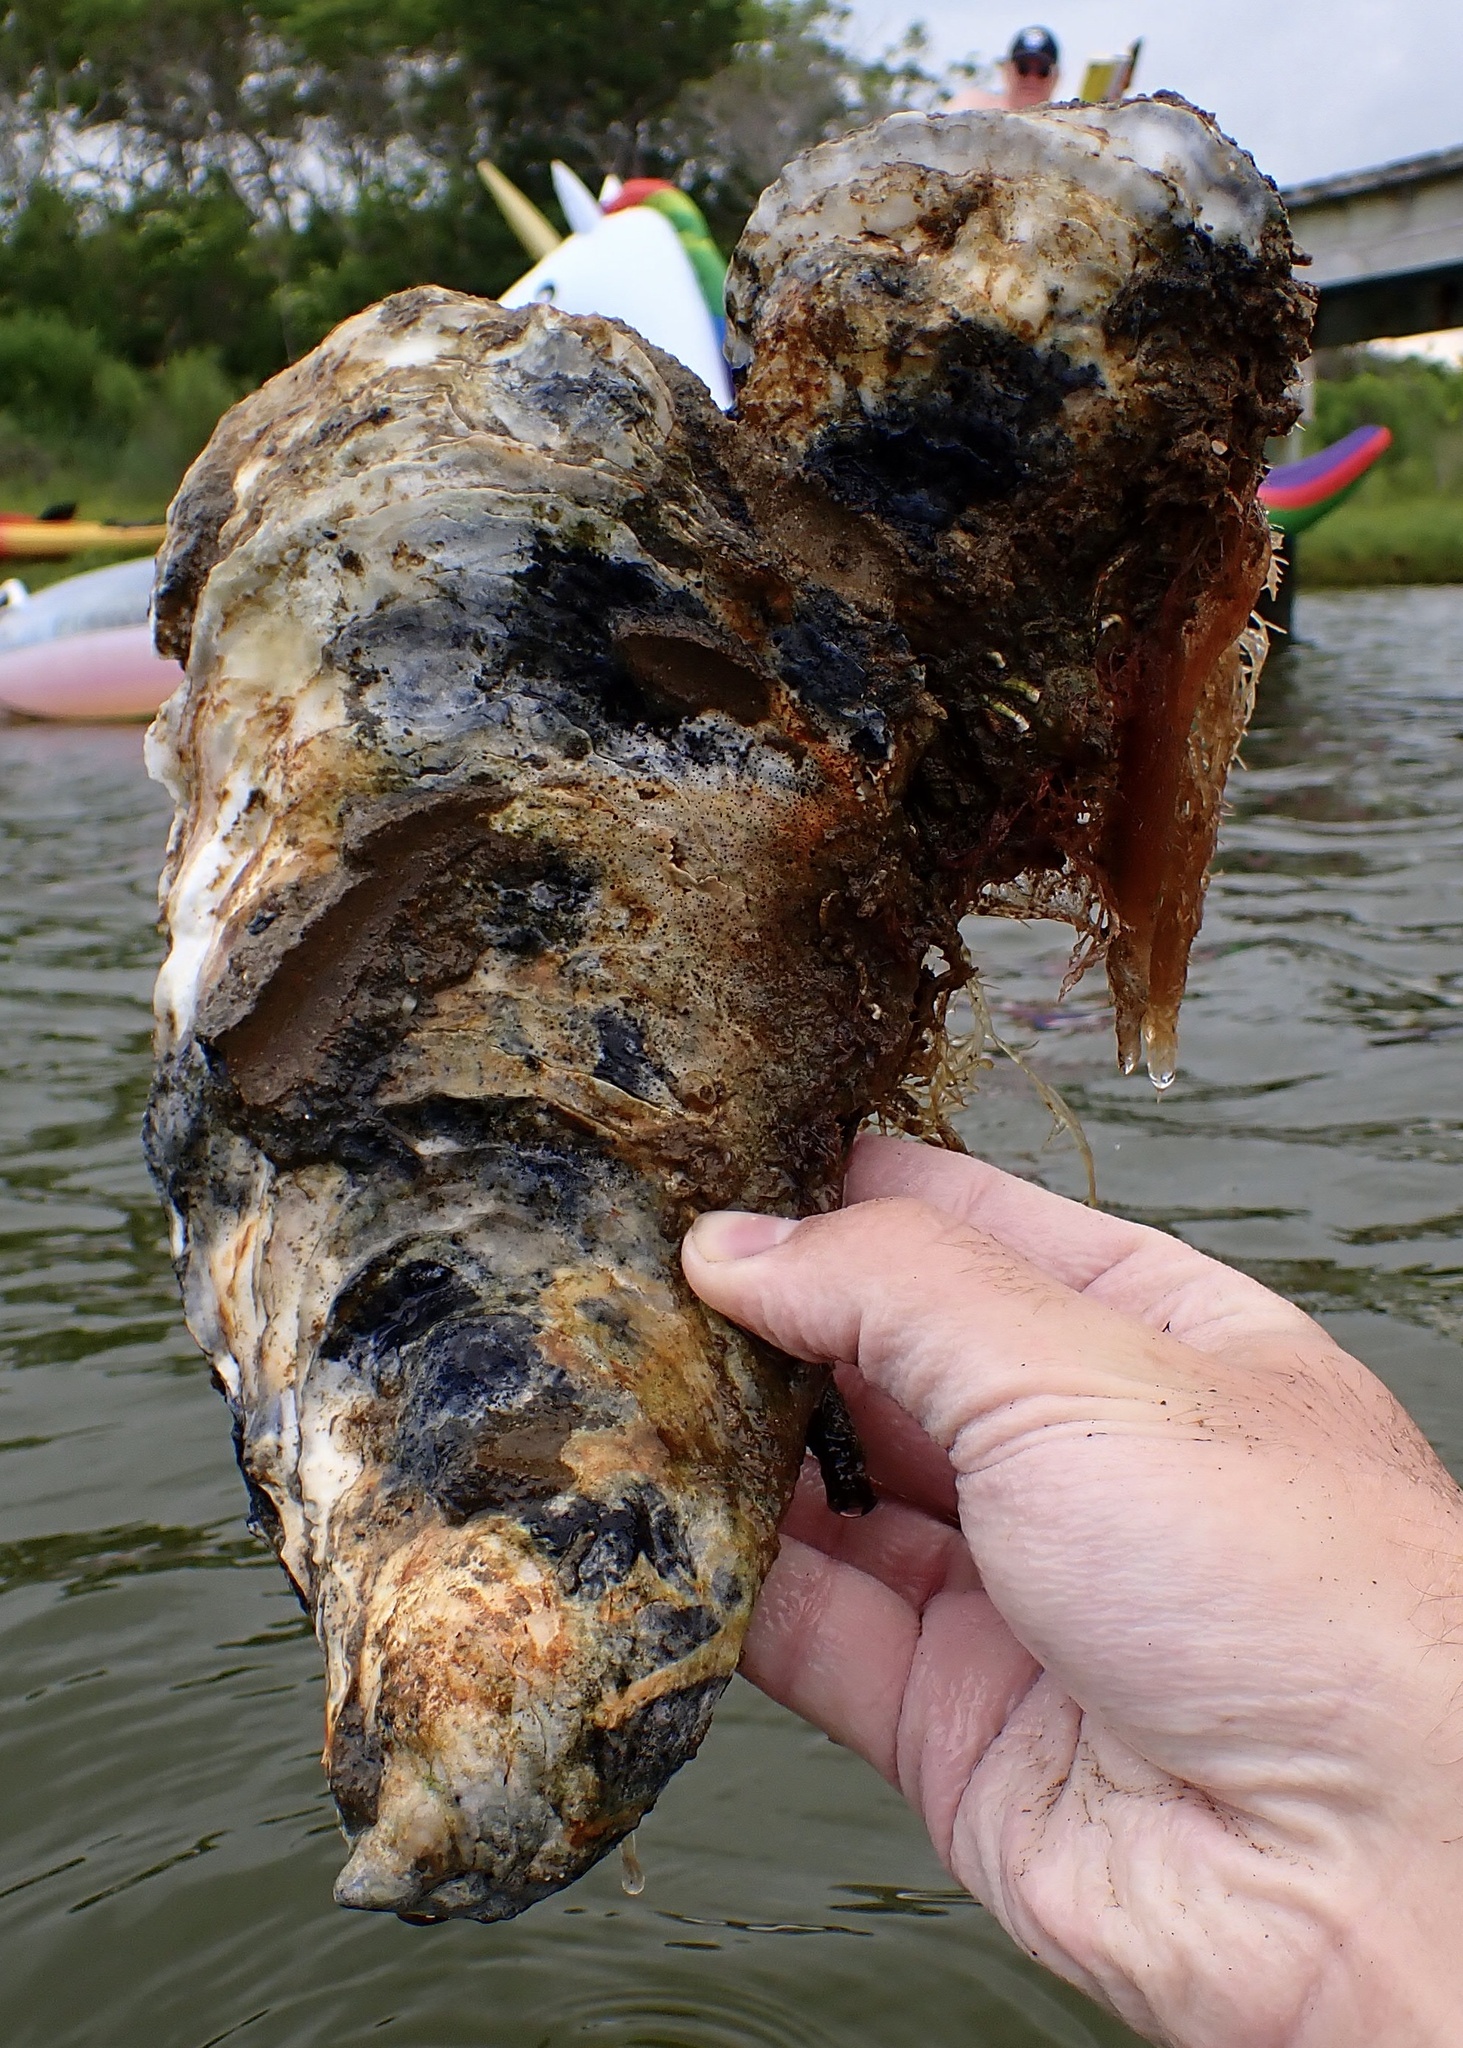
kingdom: Animalia
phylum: Mollusca
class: Bivalvia
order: Ostreida
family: Ostreidae
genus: Crassostrea
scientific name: Crassostrea virginica
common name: American oyster
